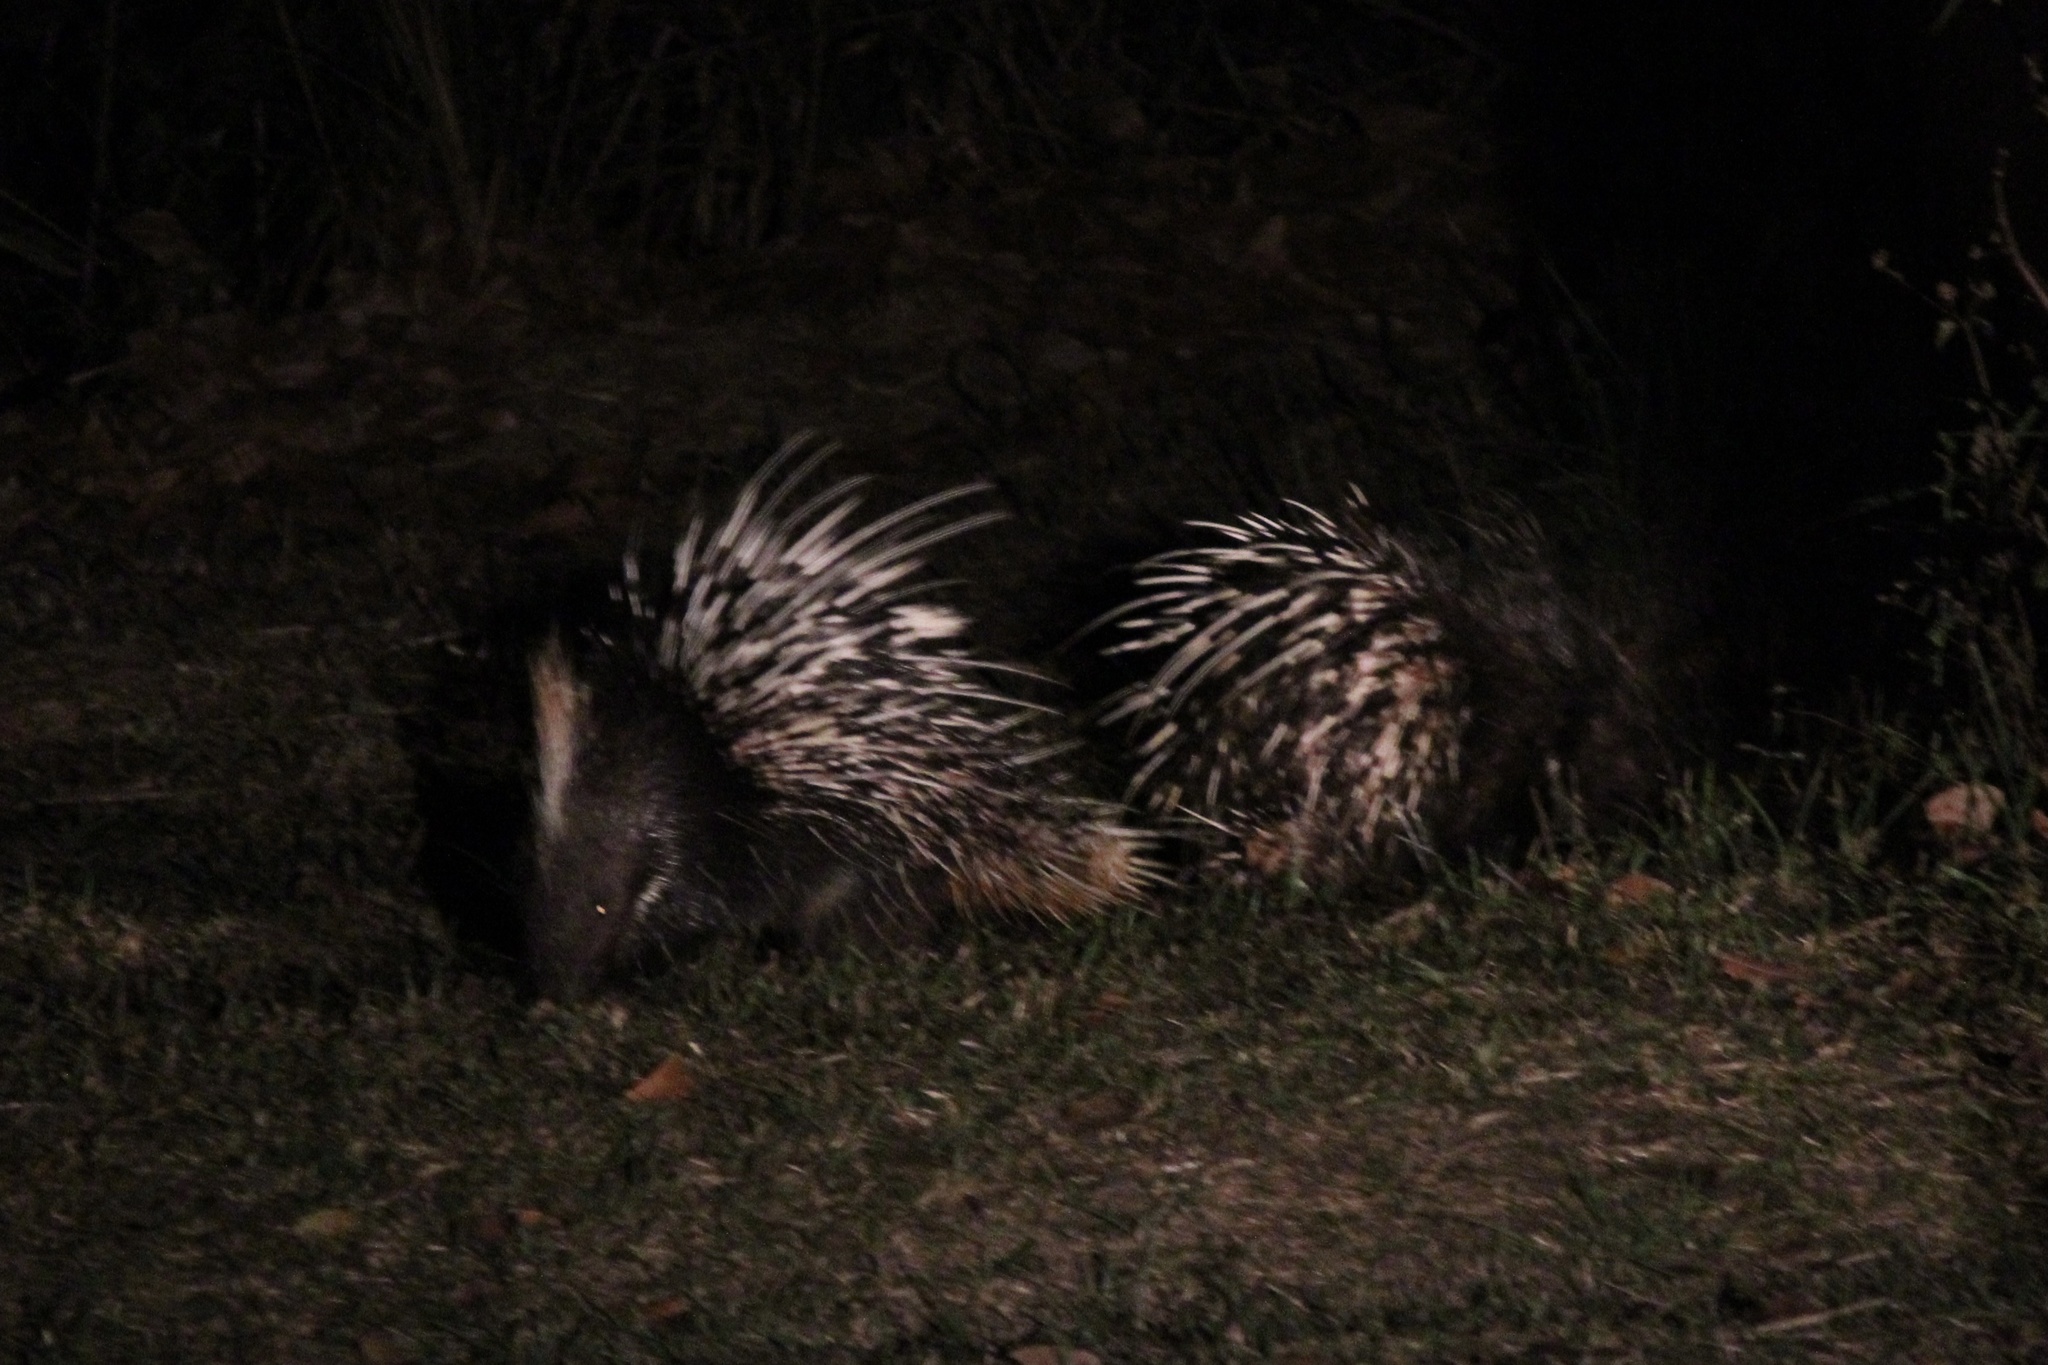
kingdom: Animalia
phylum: Chordata
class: Mammalia
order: Rodentia
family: Hystricidae
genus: Hystrix
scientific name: Hystrix brachyura
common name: Malayan porcupine
